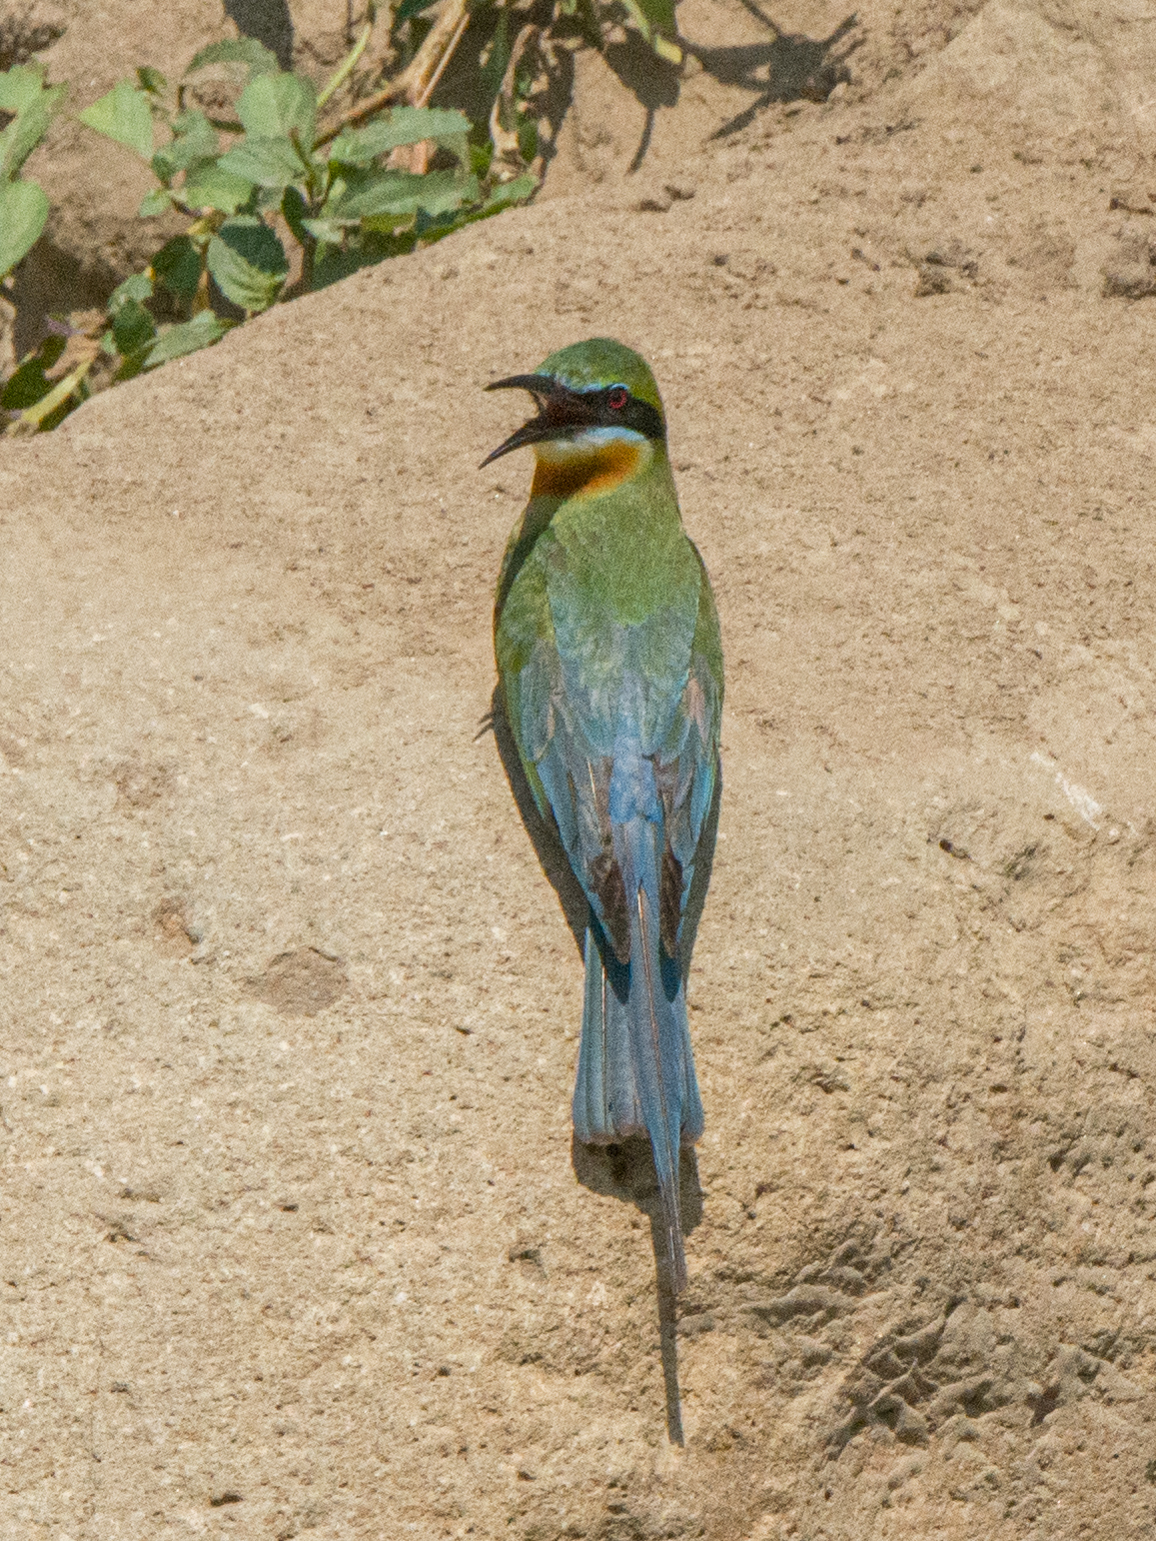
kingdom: Animalia
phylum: Chordata
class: Aves
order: Coraciiformes
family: Meropidae
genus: Merops
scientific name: Merops philippinus
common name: Blue-tailed bee-eater
